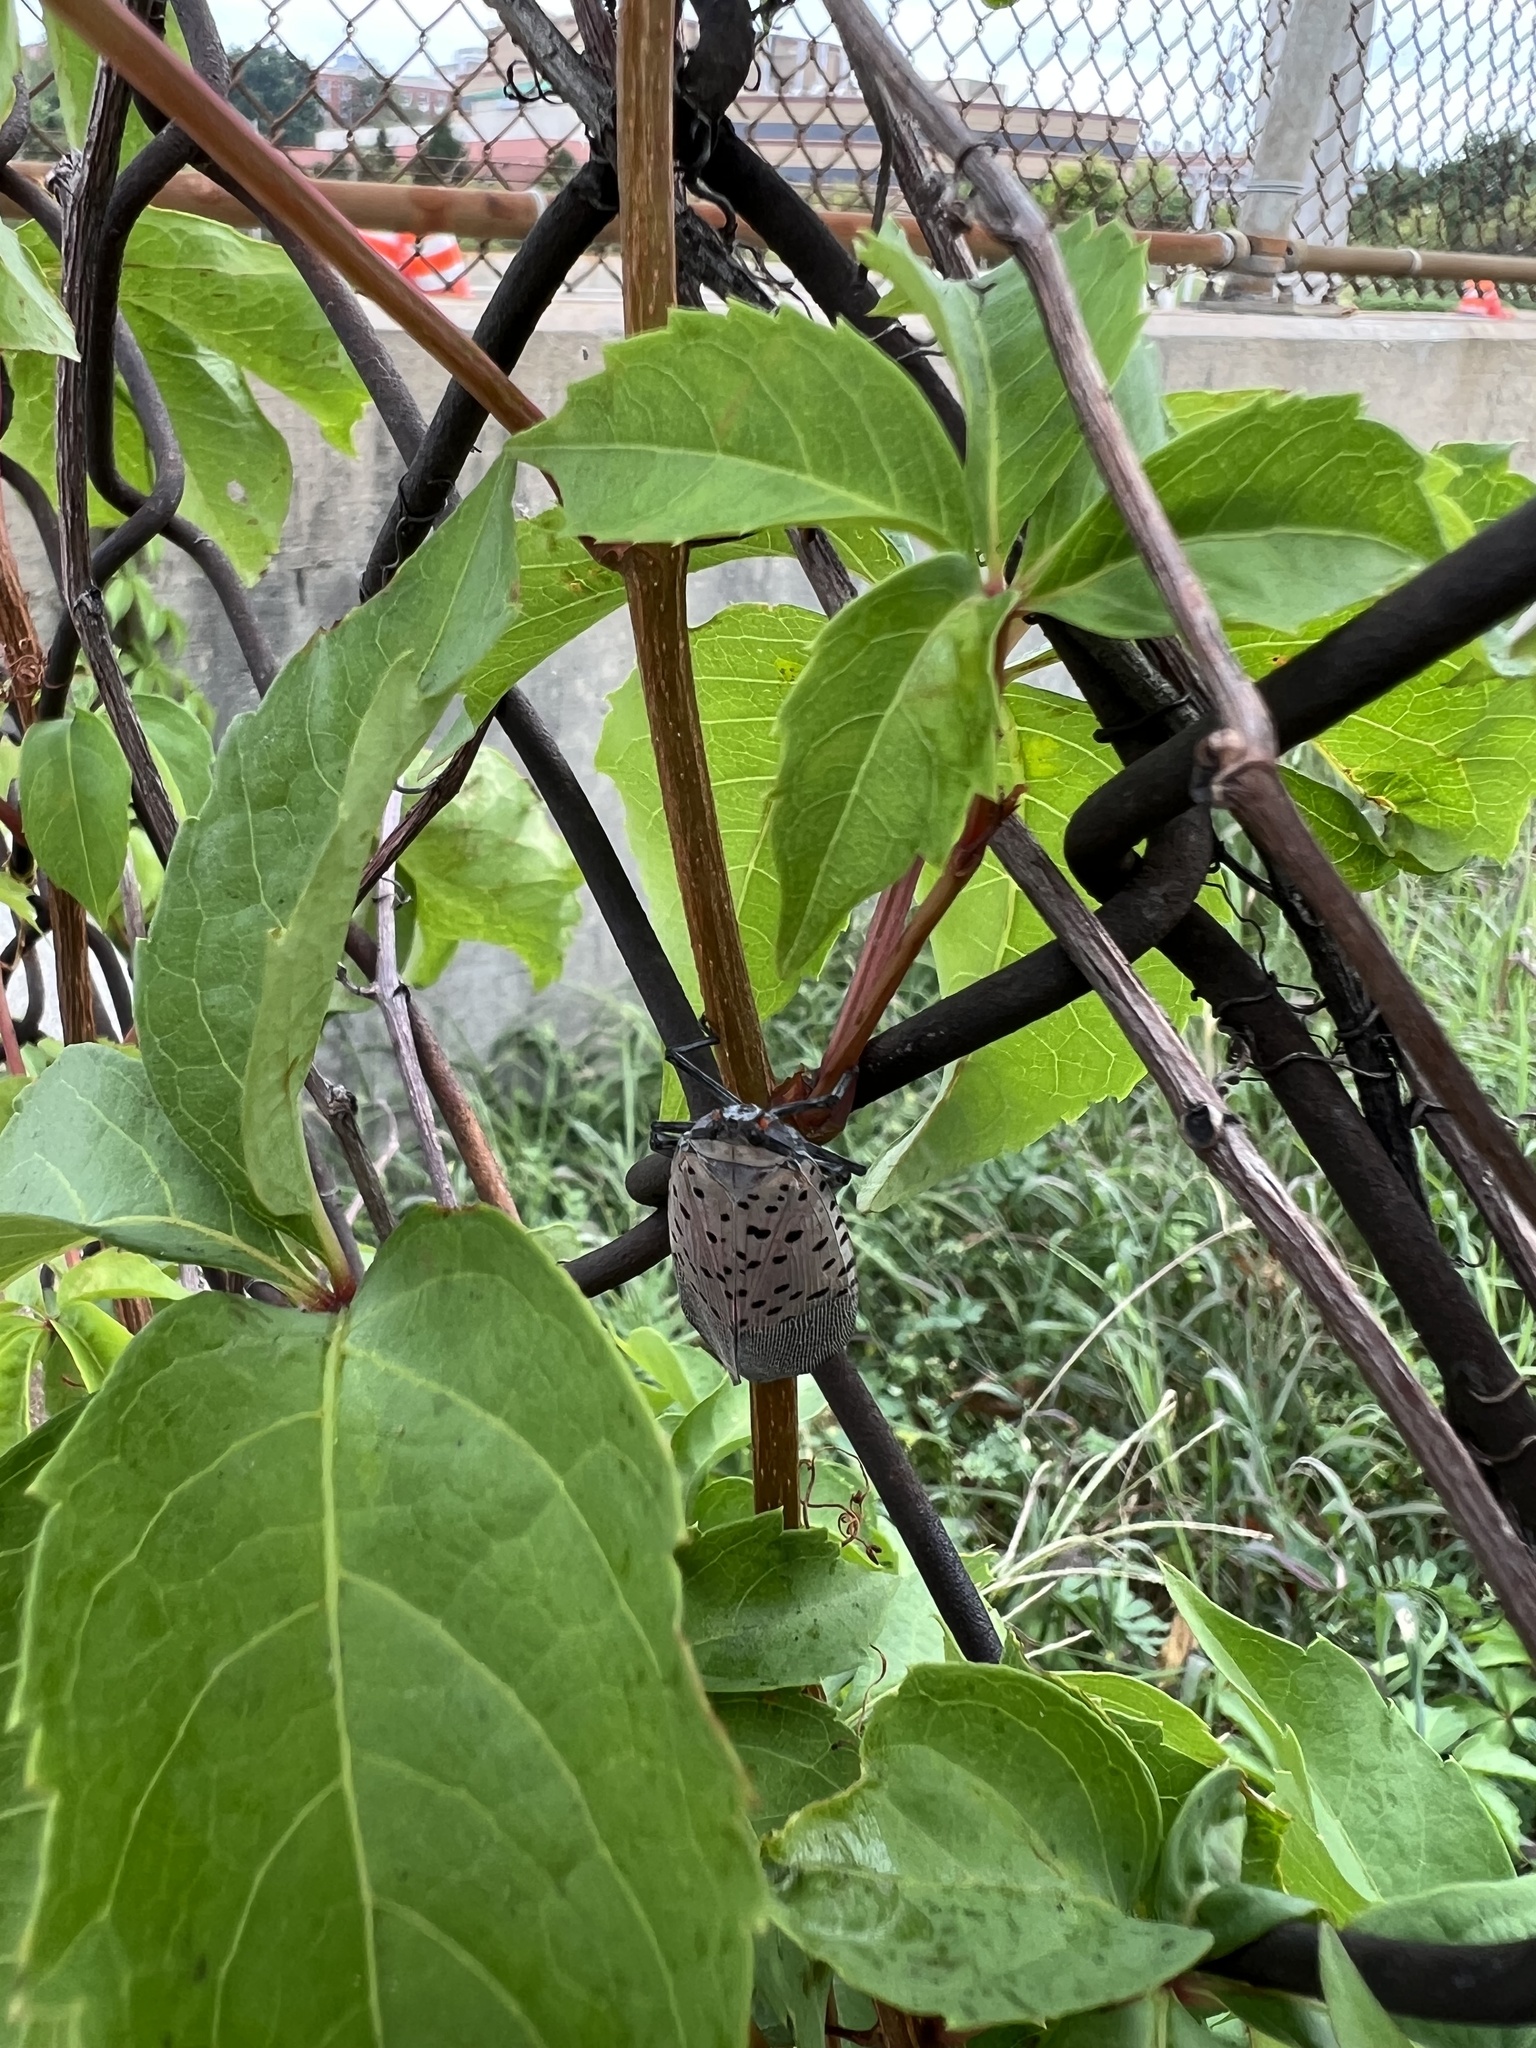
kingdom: Animalia
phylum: Arthropoda
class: Insecta
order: Hemiptera
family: Fulgoridae
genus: Lycorma
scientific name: Lycorma delicatula
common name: Spotted lanternfly
